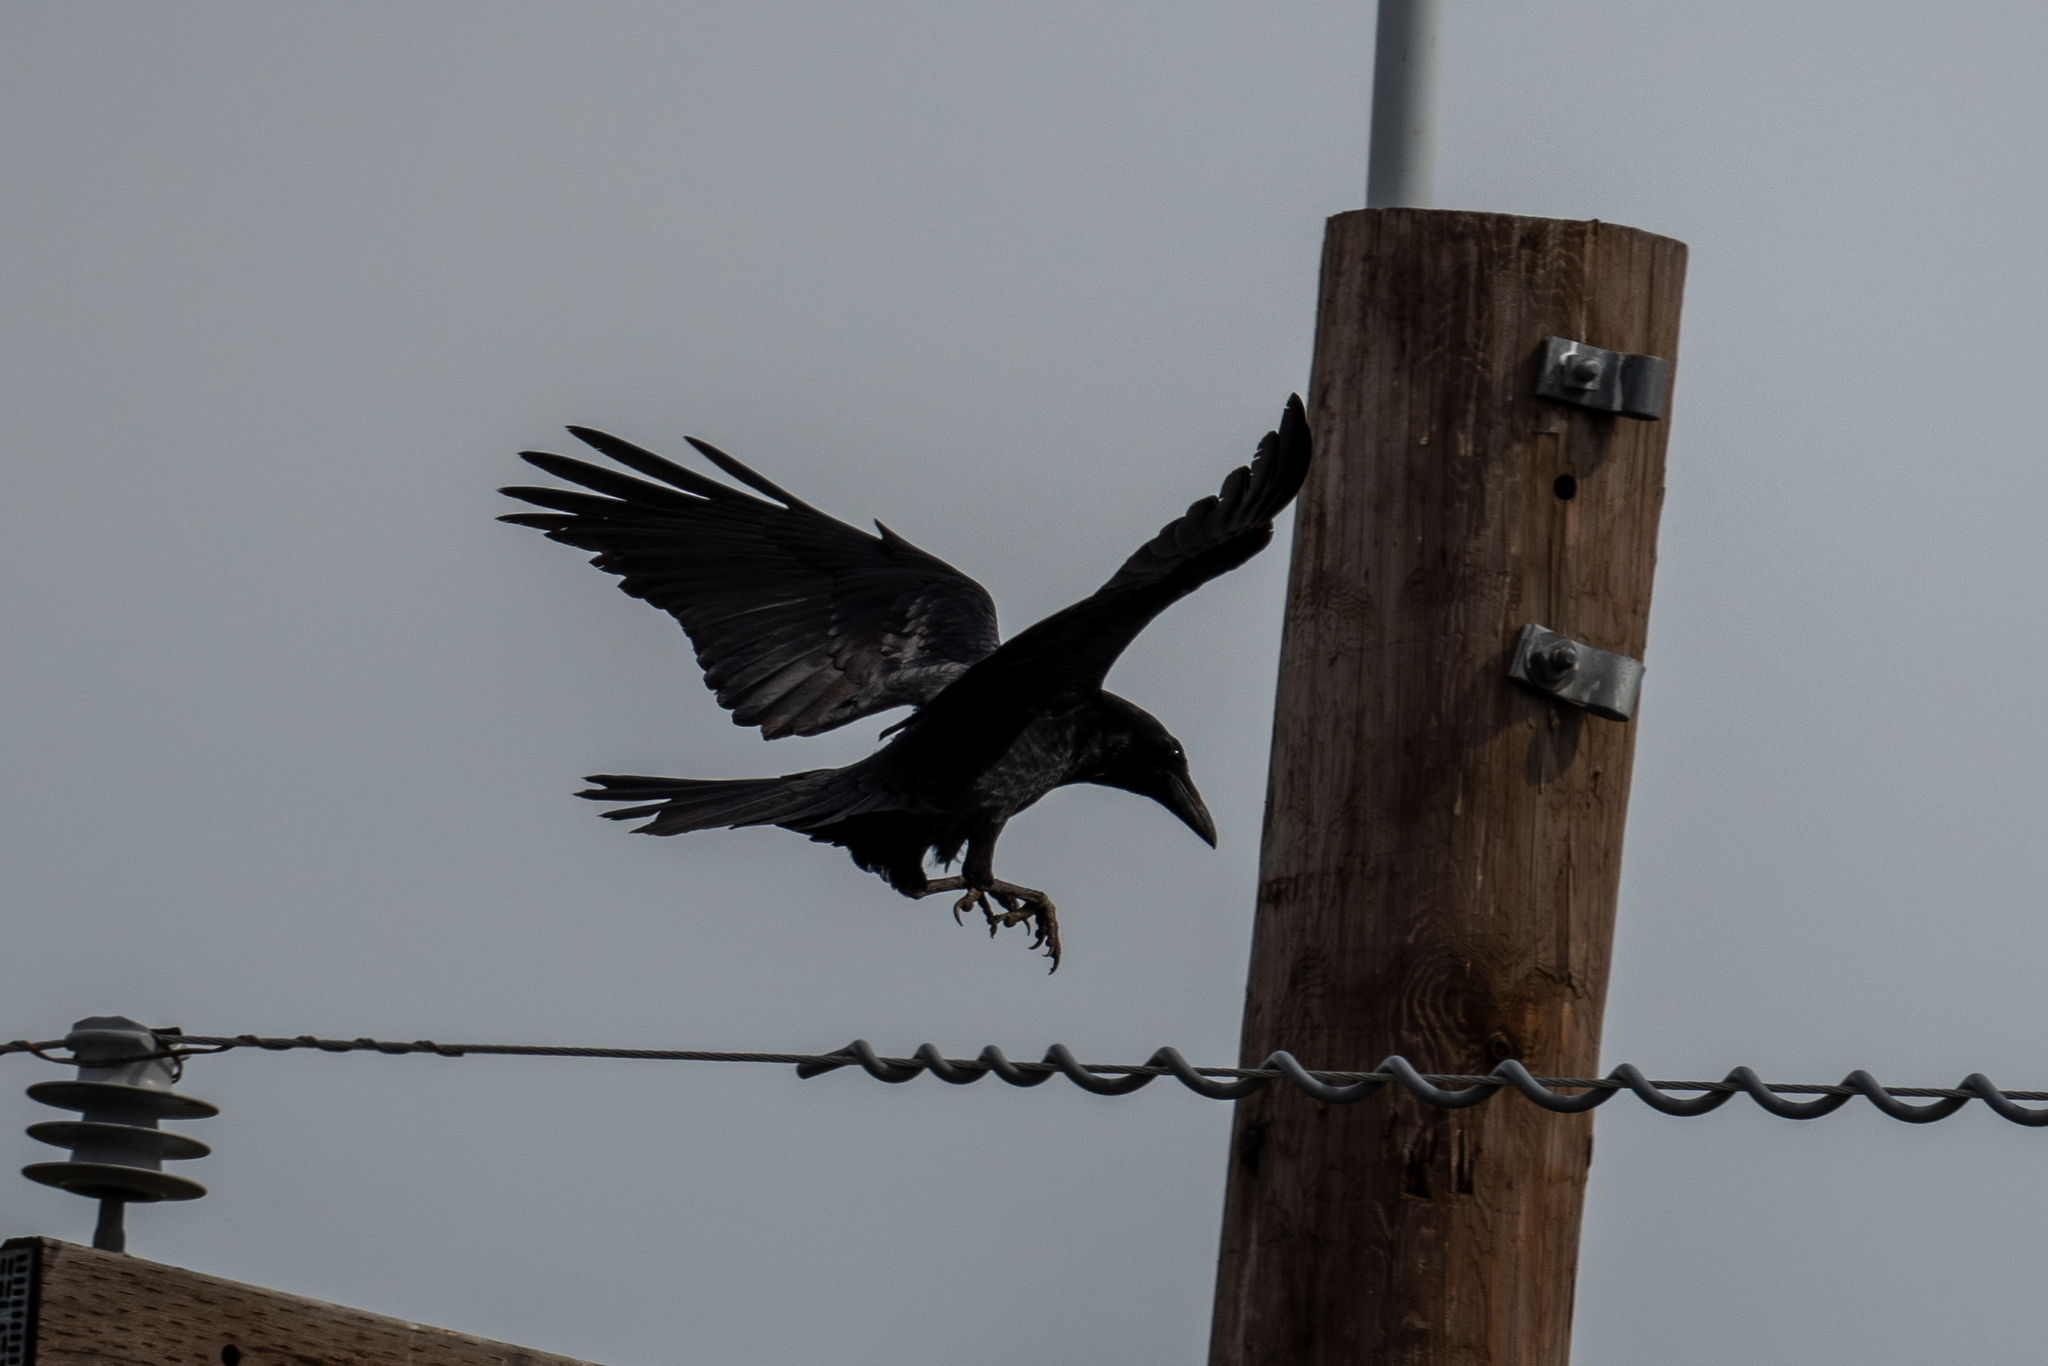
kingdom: Animalia
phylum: Chordata
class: Aves
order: Passeriformes
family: Corvidae
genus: Corvus
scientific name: Corvus corax
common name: Common raven
